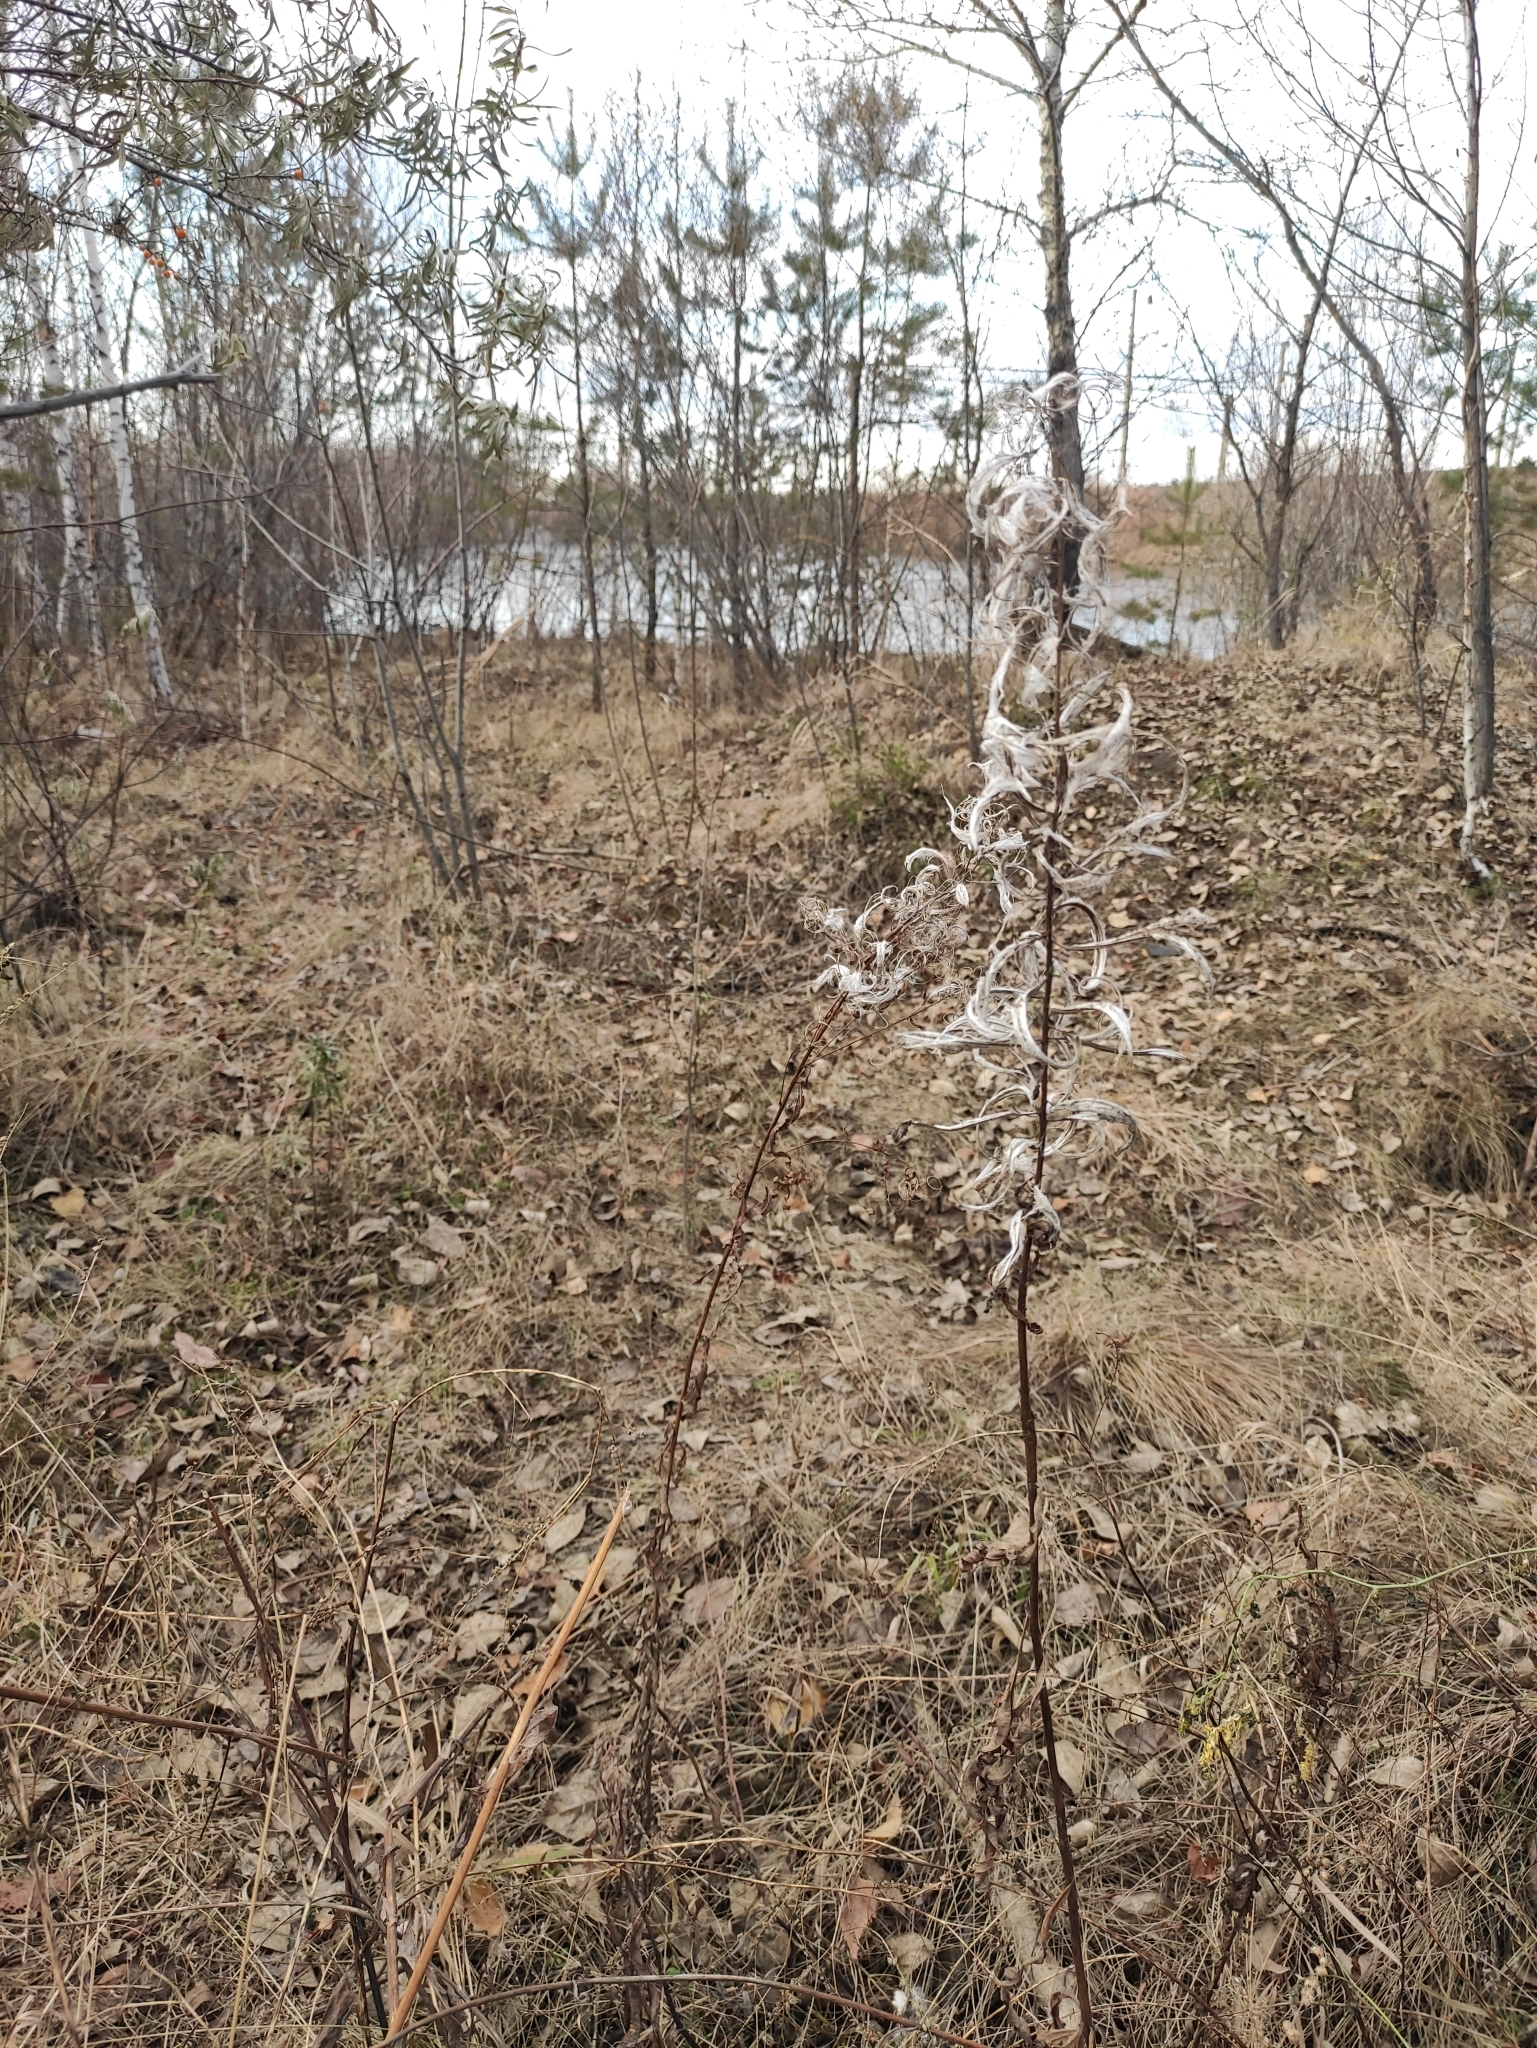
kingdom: Plantae
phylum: Tracheophyta
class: Magnoliopsida
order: Myrtales
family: Onagraceae
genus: Chamaenerion
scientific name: Chamaenerion angustifolium
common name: Fireweed
